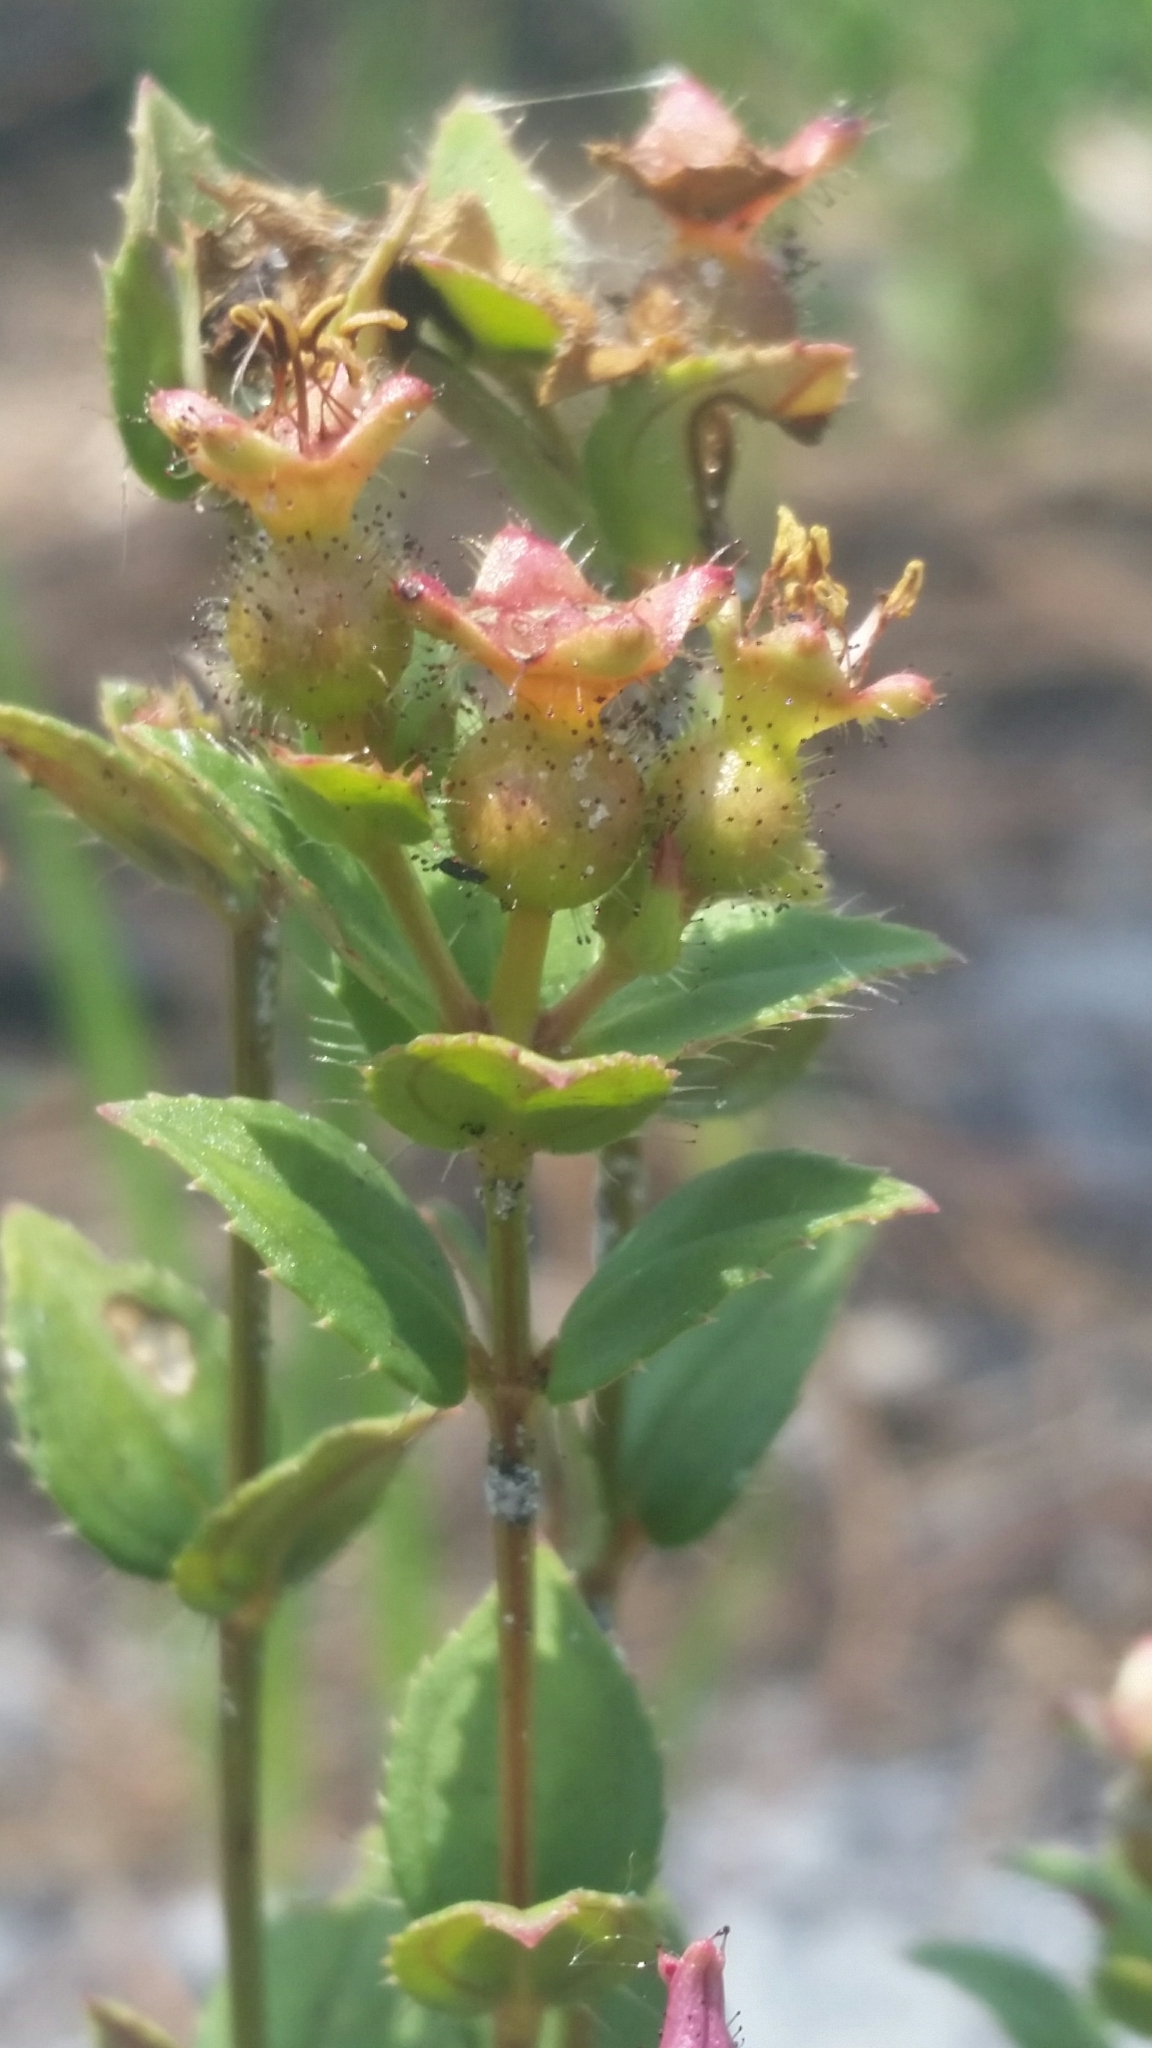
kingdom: Plantae
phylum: Tracheophyta
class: Magnoliopsida
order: Myrtales
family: Melastomataceae
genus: Rhexia
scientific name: Rhexia nuttallii
